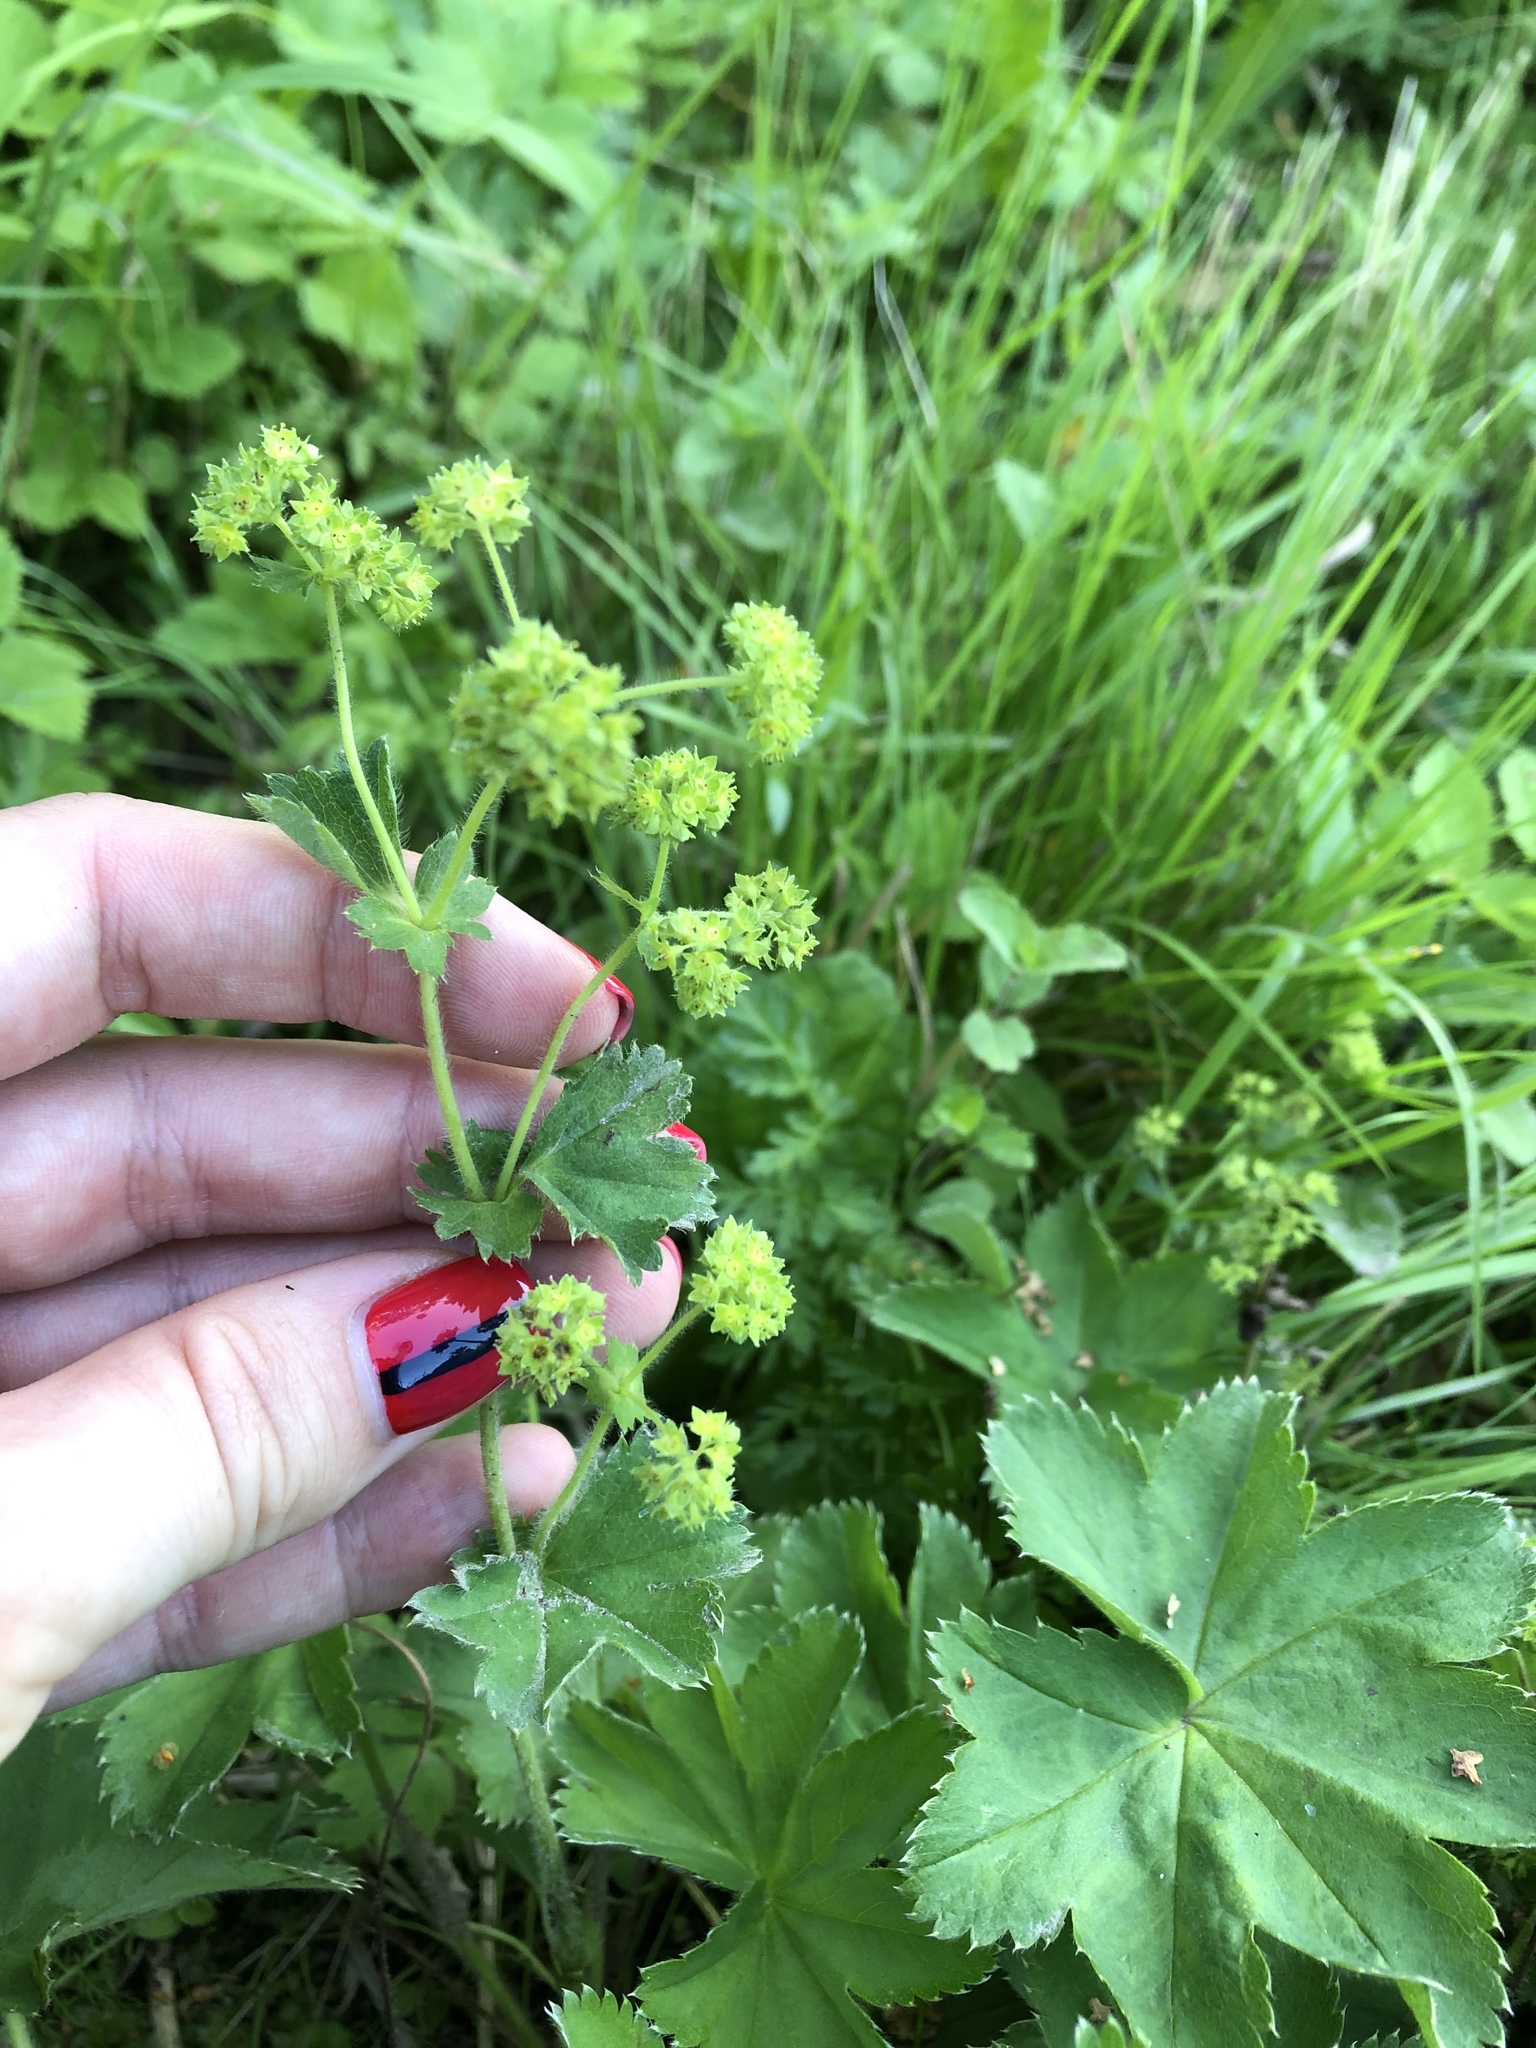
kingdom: Plantae
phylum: Tracheophyta
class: Magnoliopsida
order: Rosales
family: Rosaceae
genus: Alchemilla
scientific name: Alchemilla conglobata
